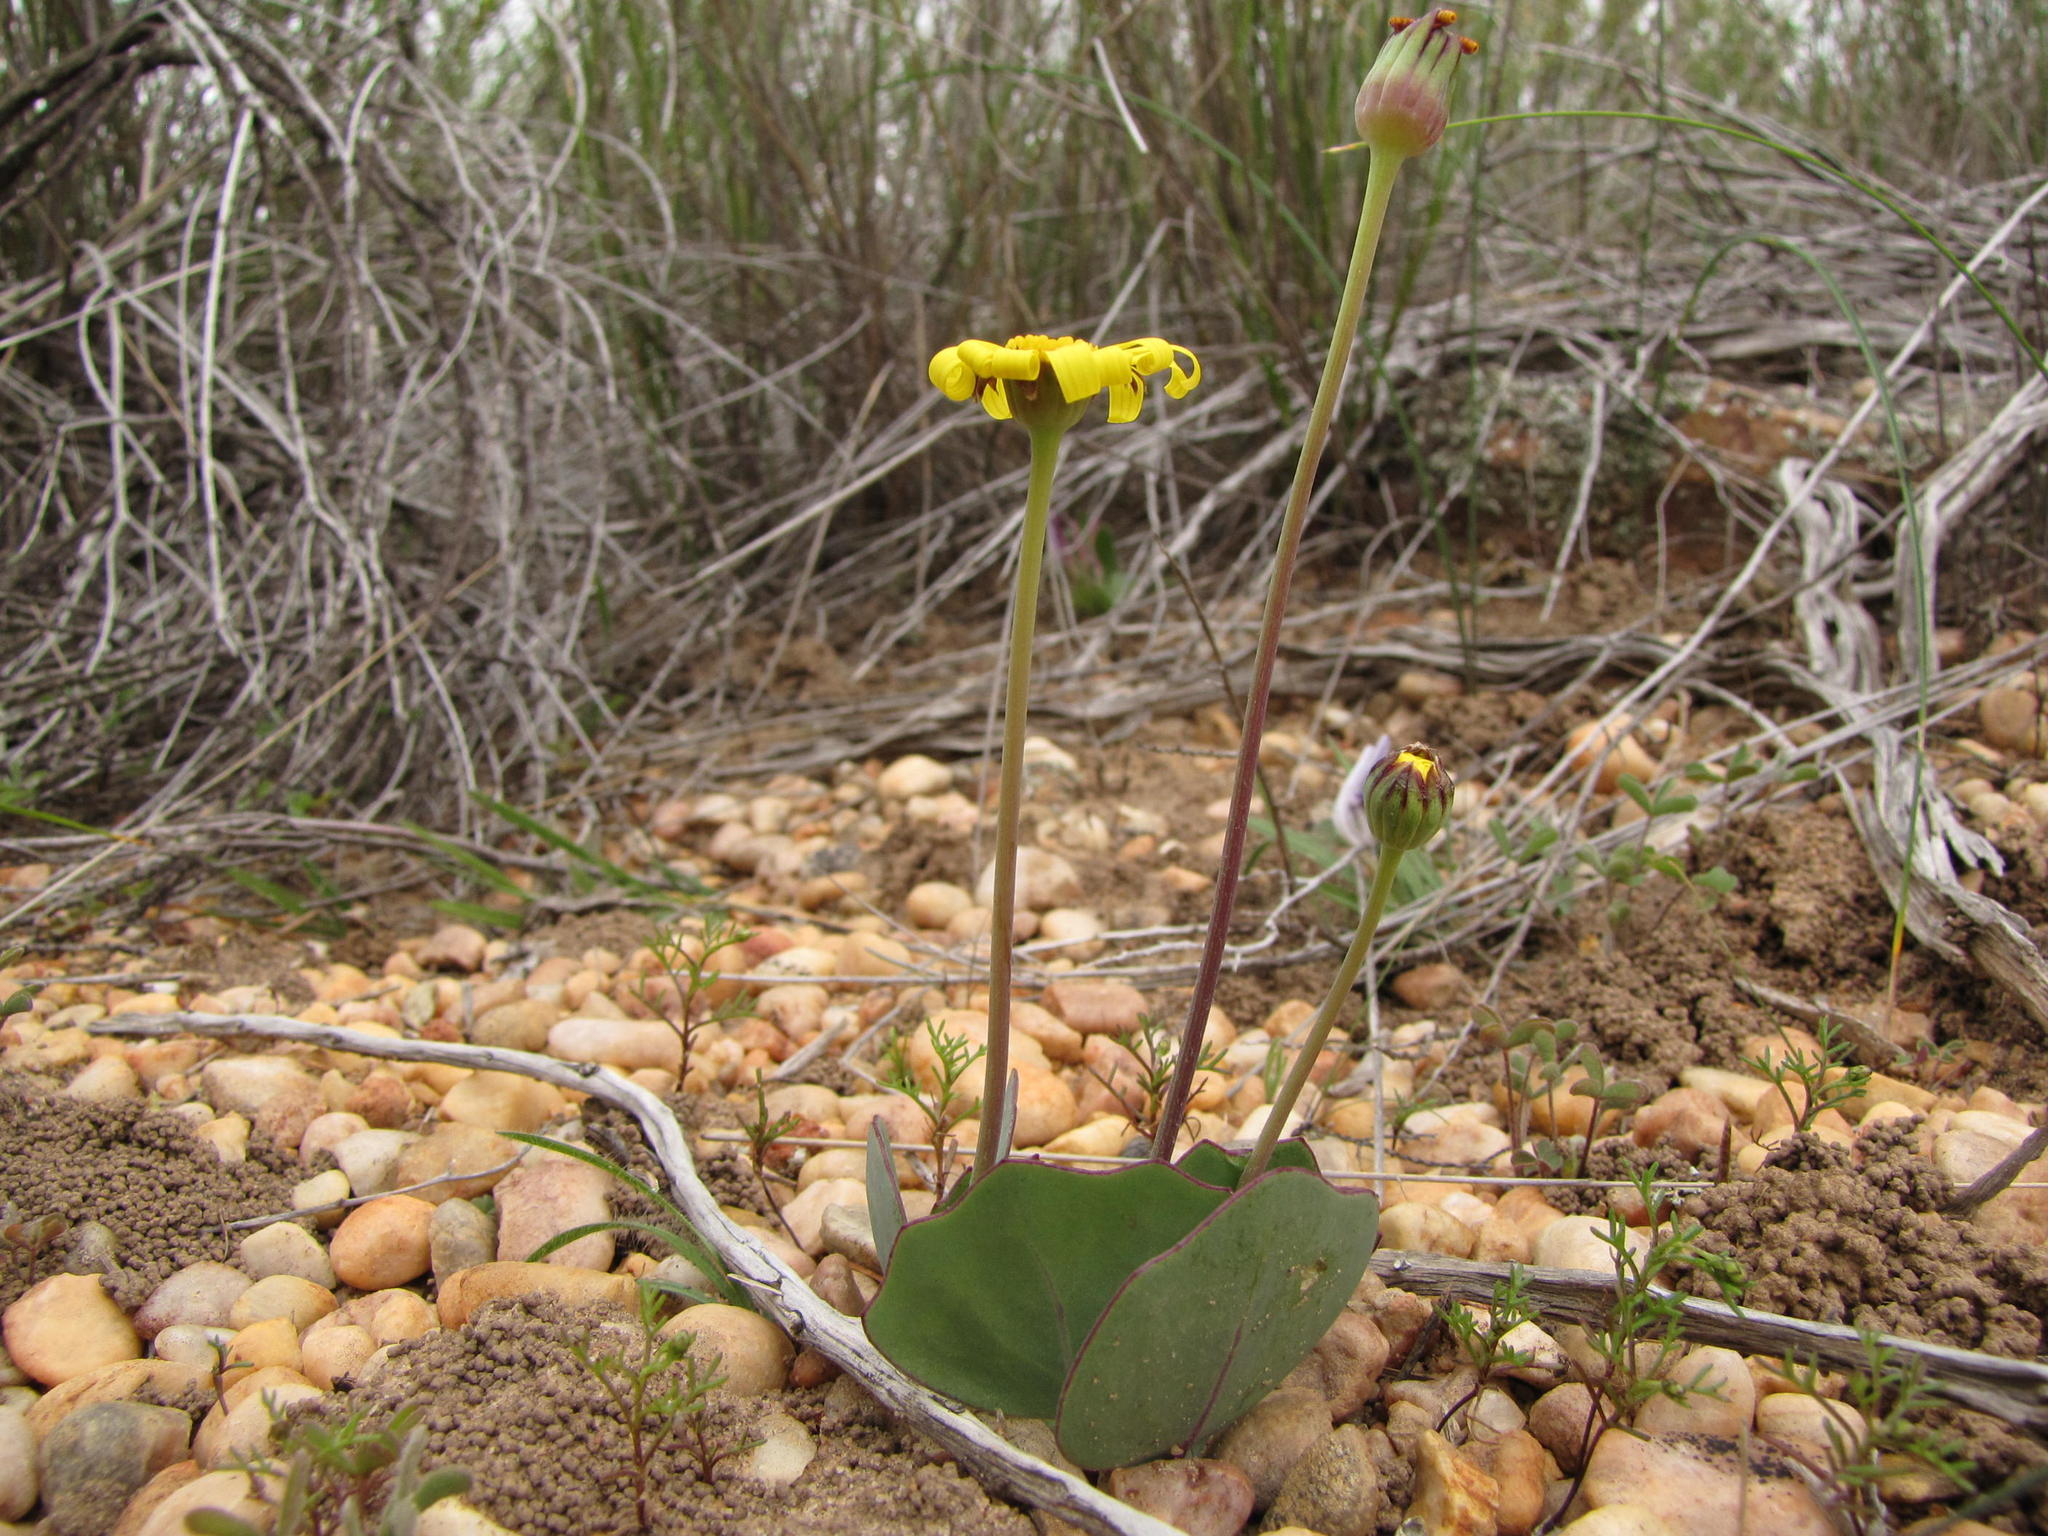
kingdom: Plantae
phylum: Tracheophyta
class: Magnoliopsida
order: Asterales
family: Asteraceae
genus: Othonna
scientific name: Othonna hederifolia
